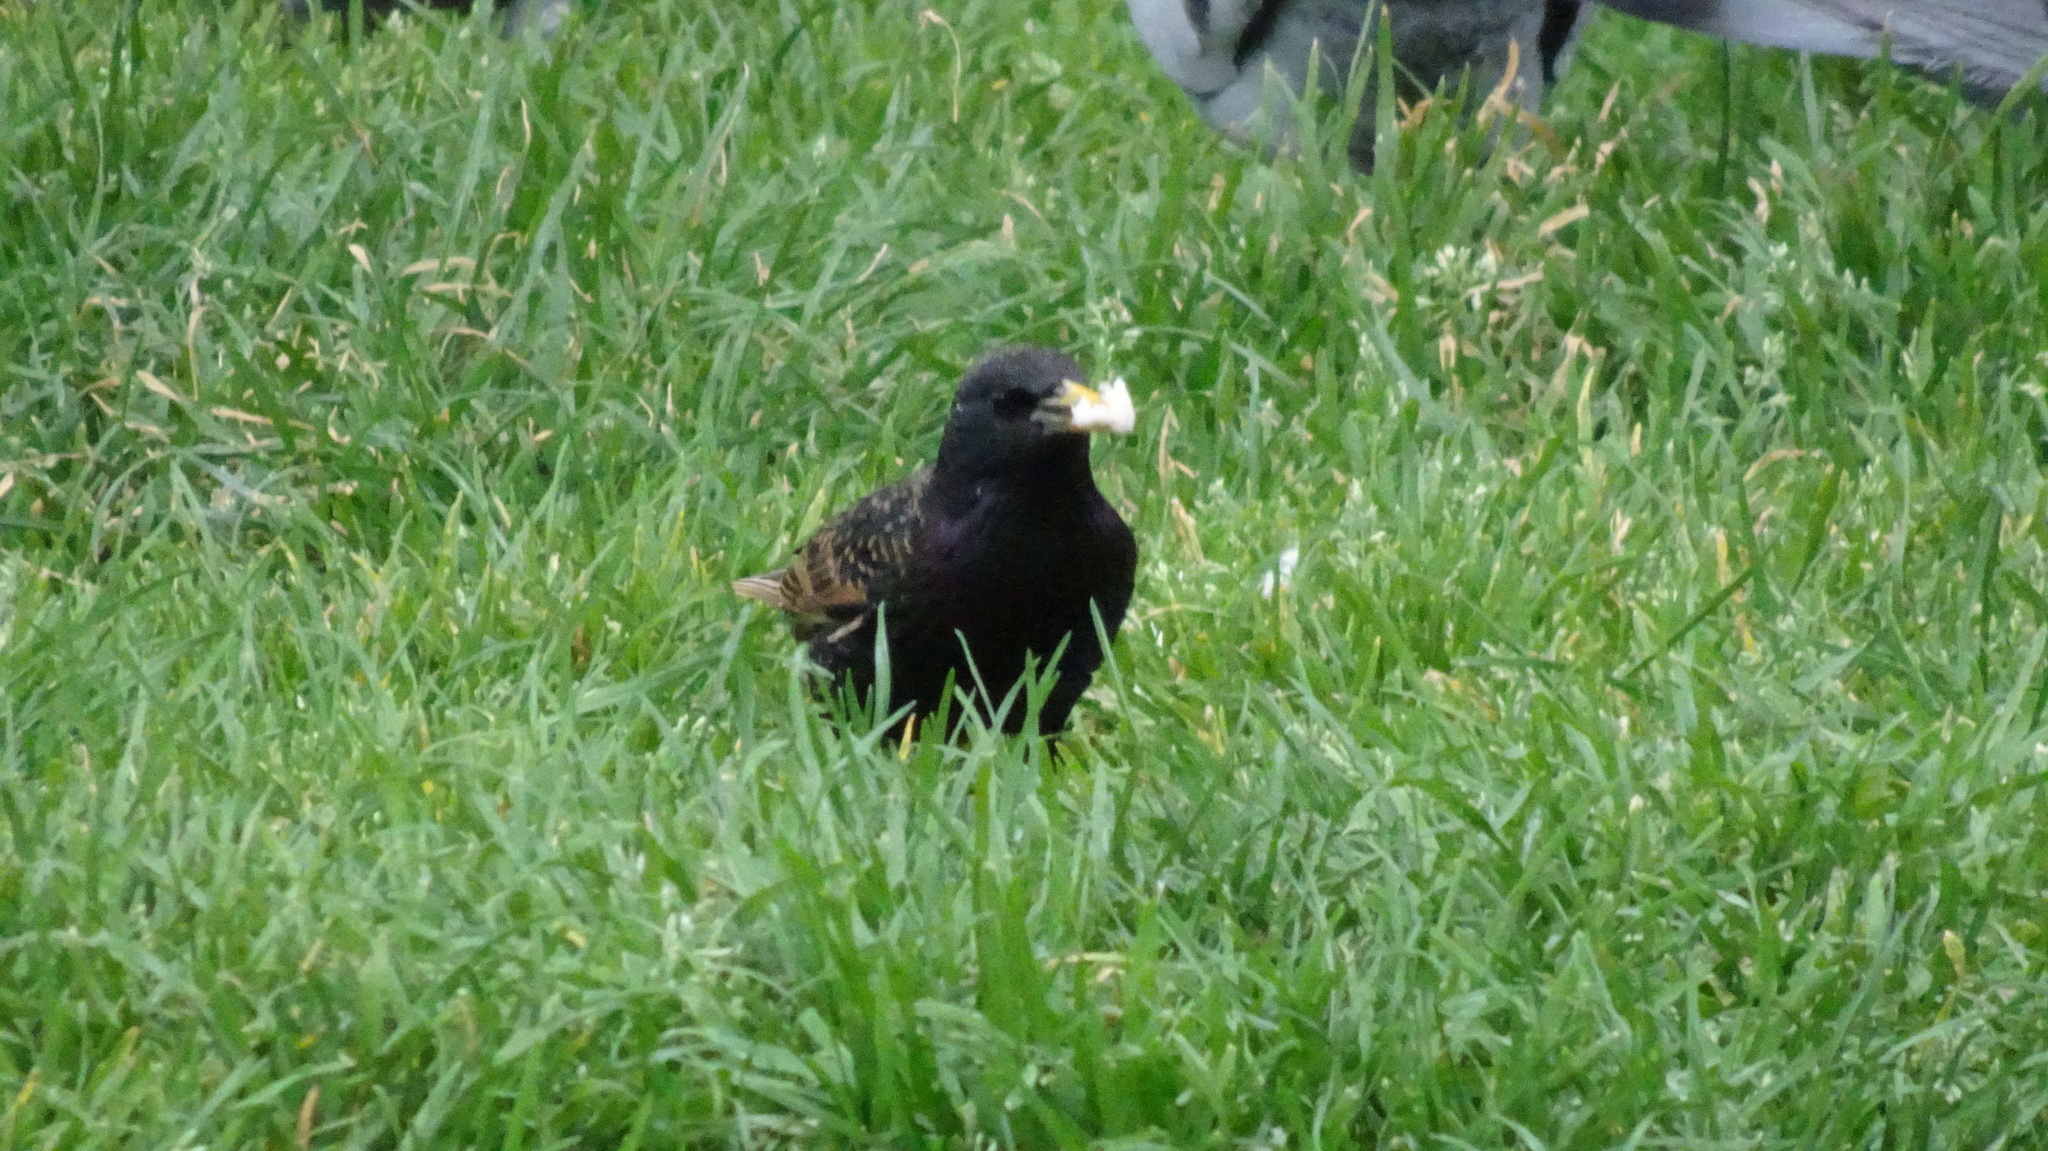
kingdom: Animalia
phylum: Chordata
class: Aves
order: Passeriformes
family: Sturnidae
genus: Sturnus
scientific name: Sturnus vulgaris
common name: Common starling
